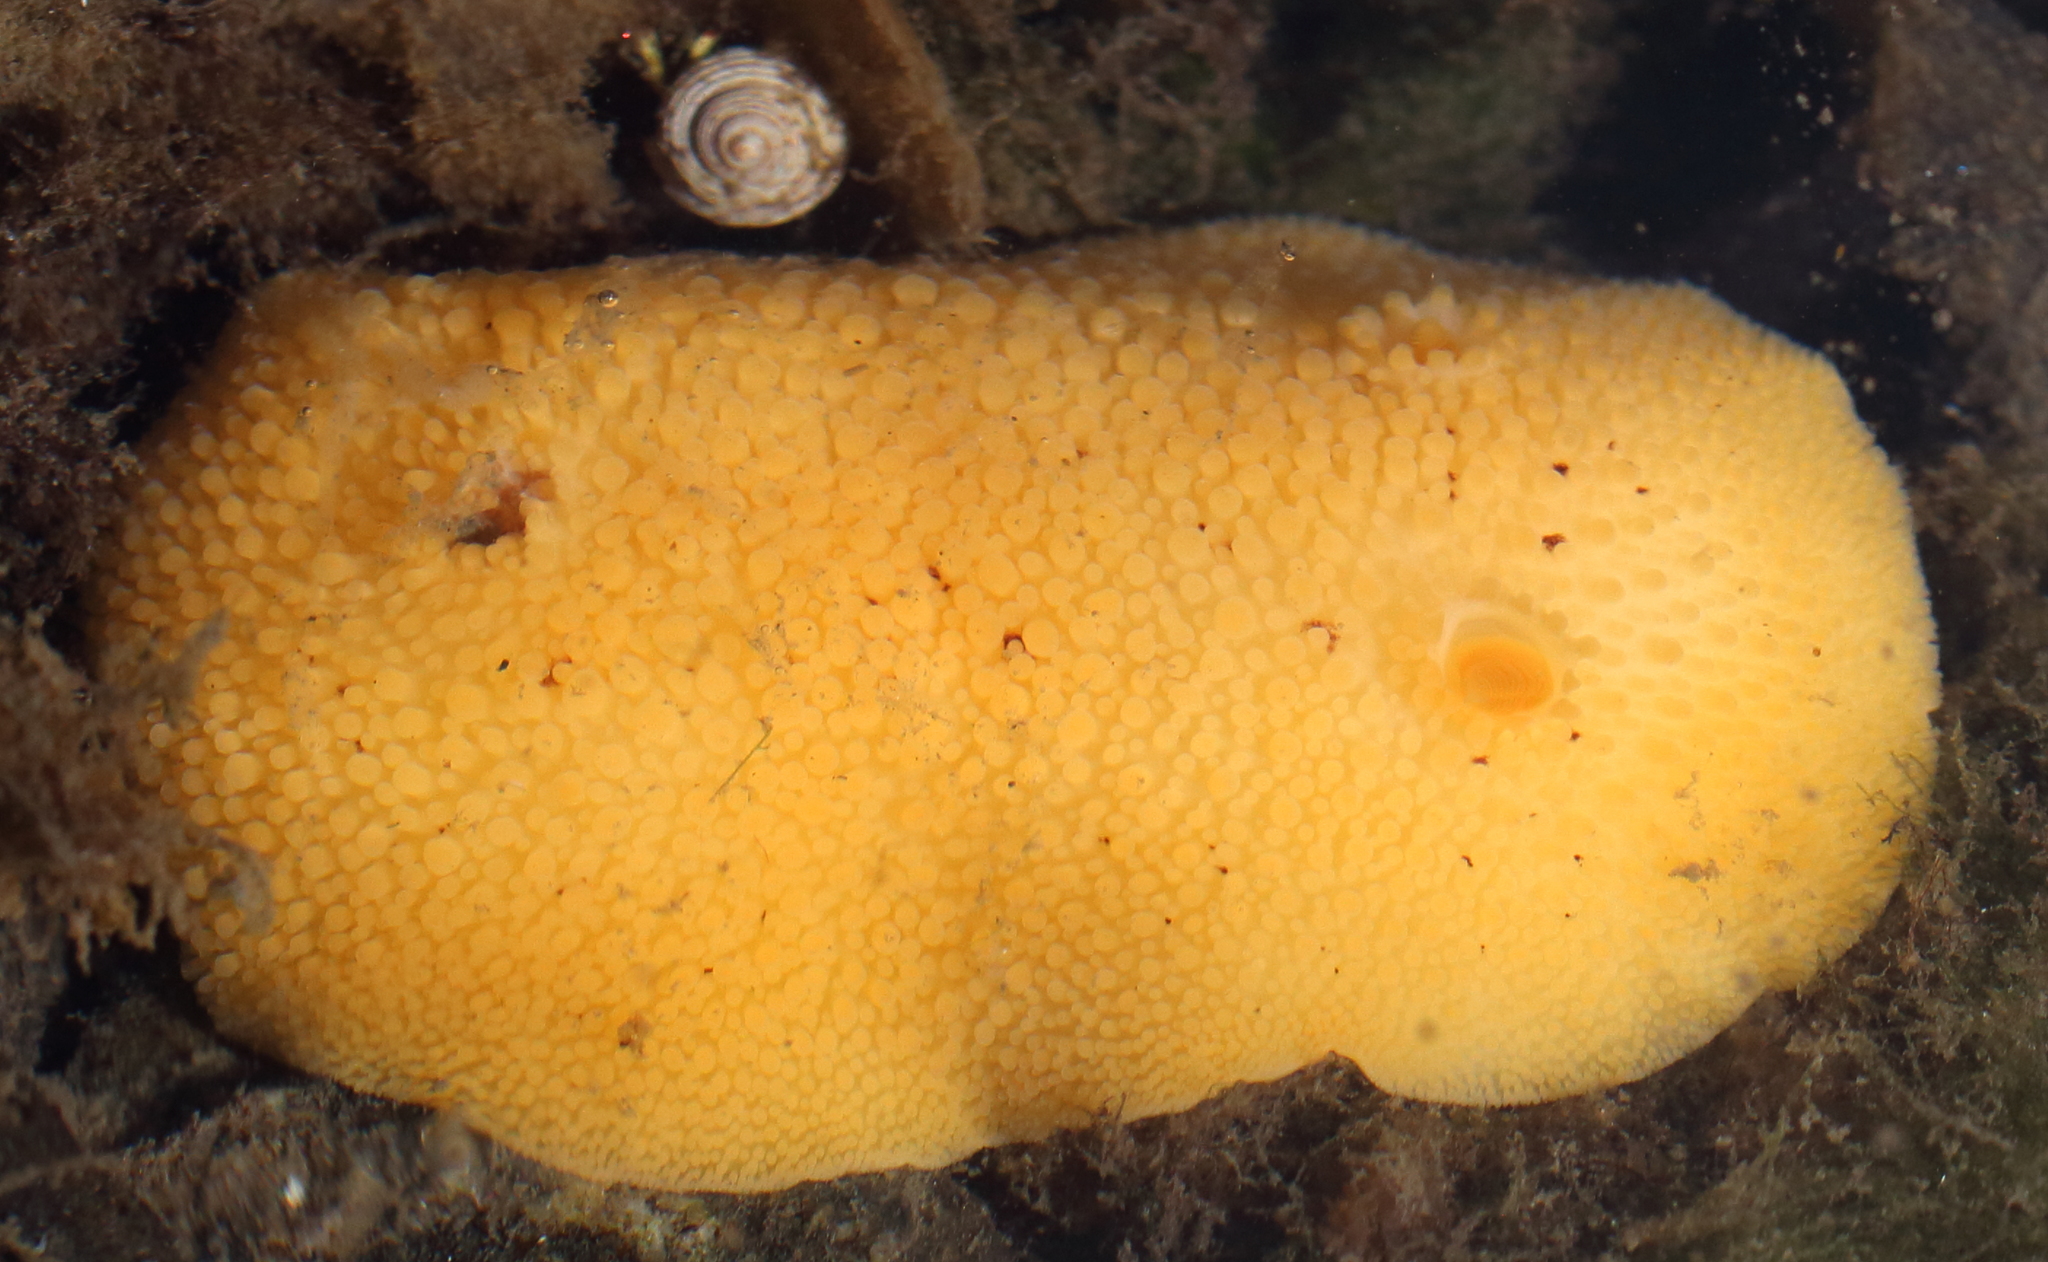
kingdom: Animalia
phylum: Mollusca
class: Gastropoda
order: Nudibranchia
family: Discodorididae
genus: Peltodoris
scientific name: Peltodoris nobilis
